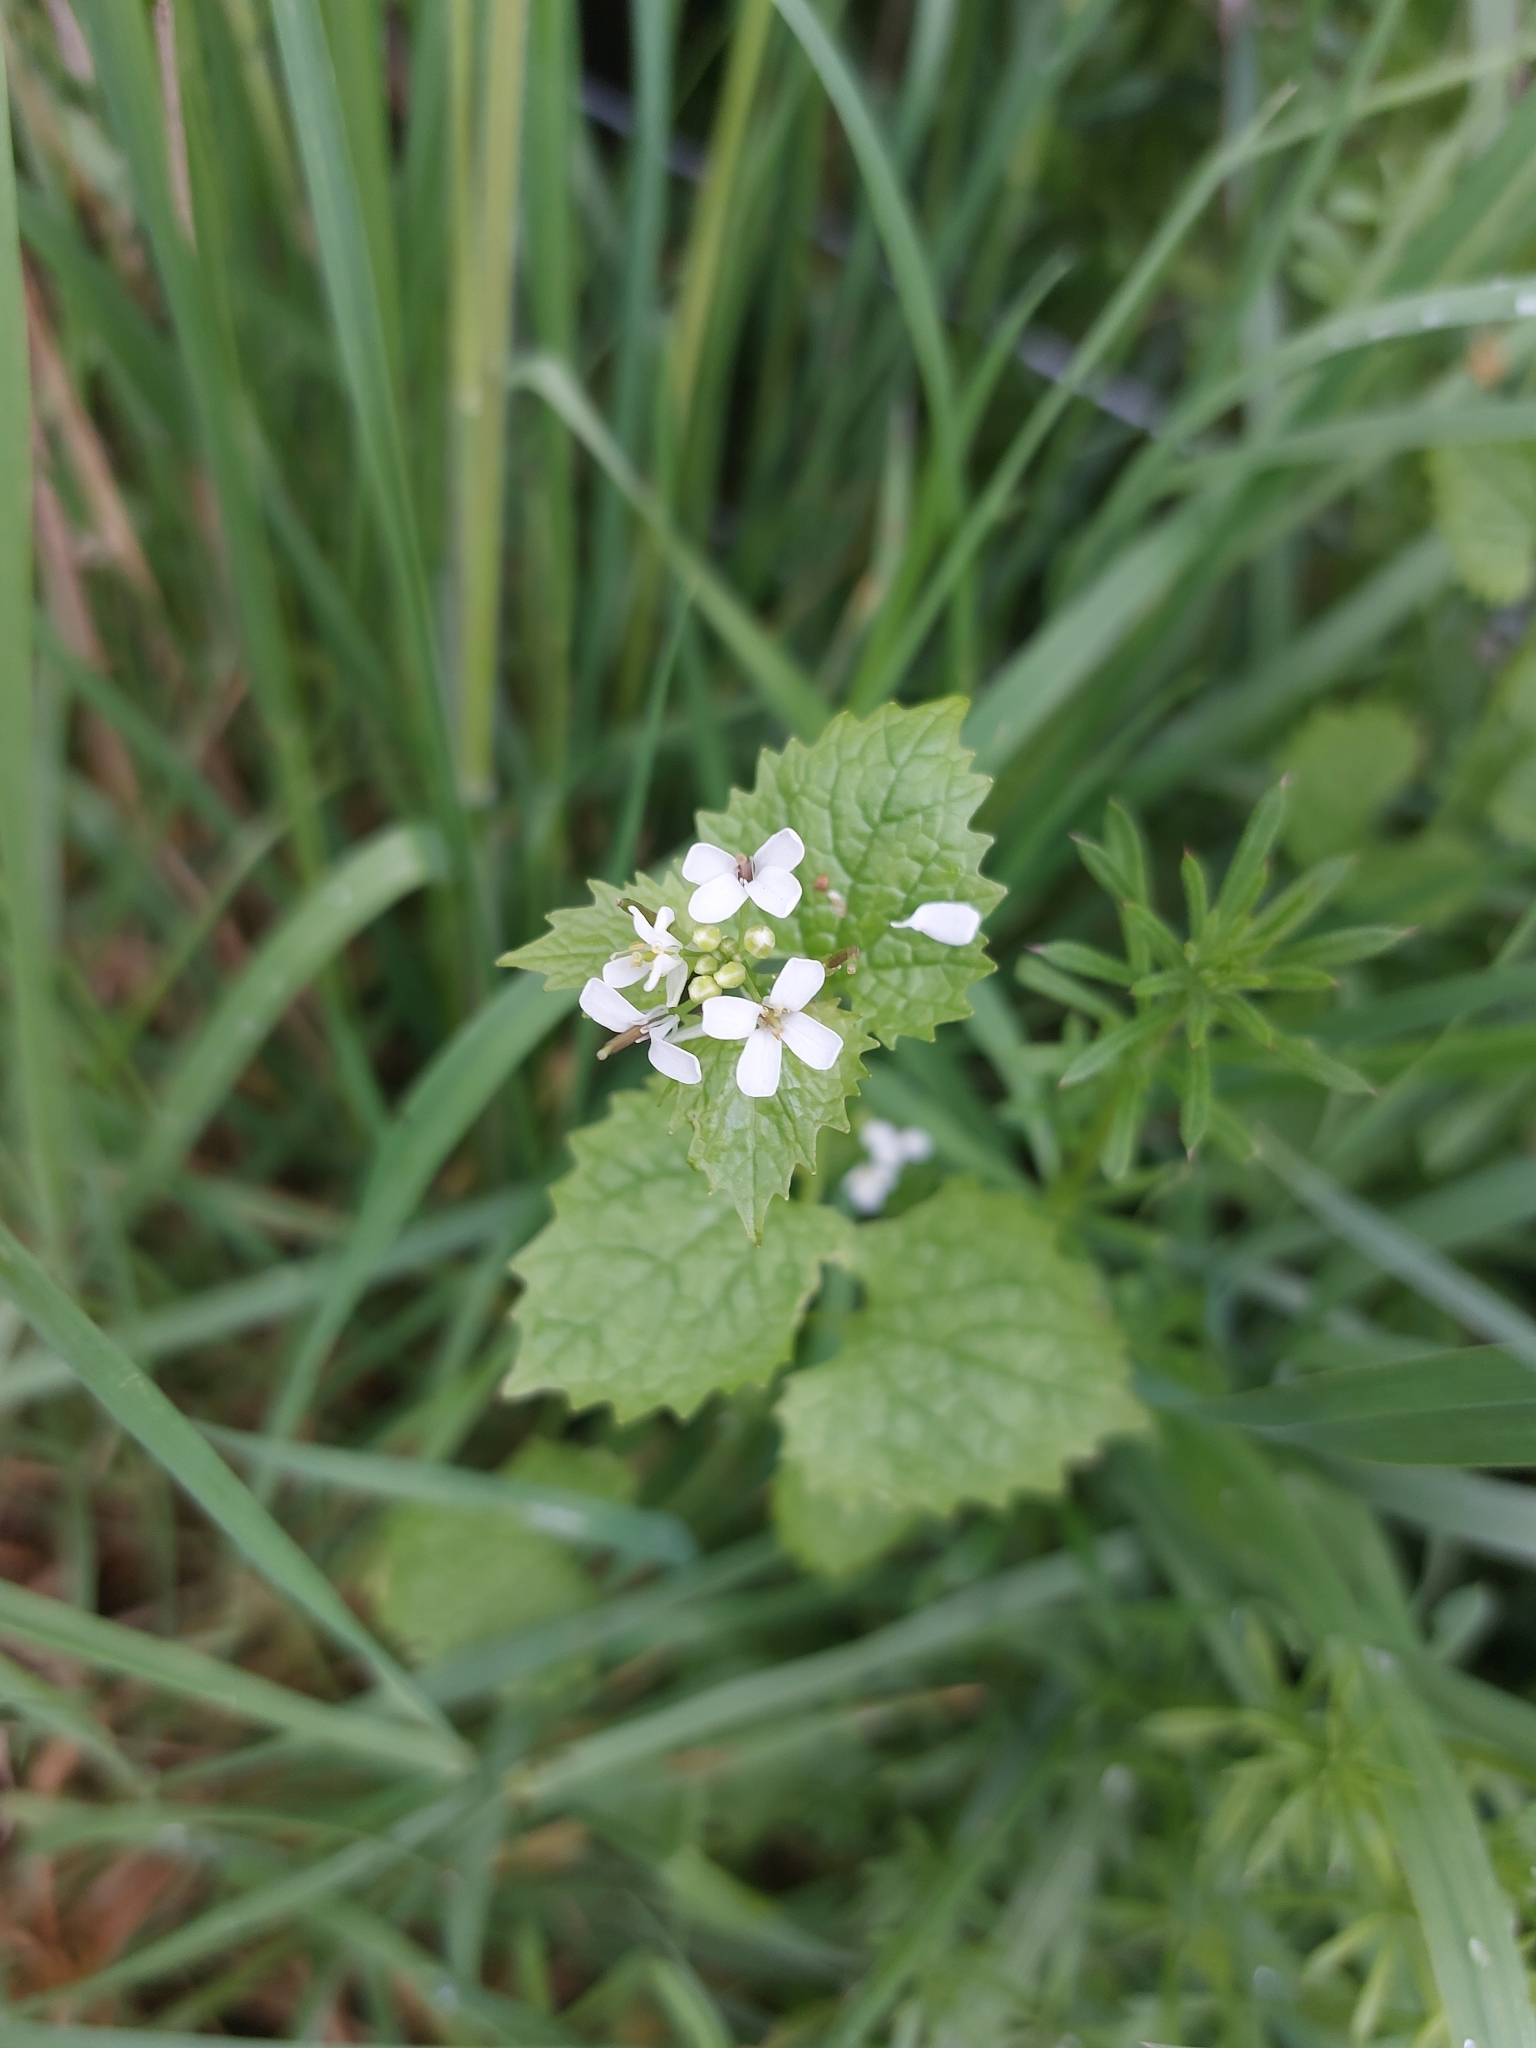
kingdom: Plantae
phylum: Tracheophyta
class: Magnoliopsida
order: Brassicales
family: Brassicaceae
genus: Alliaria
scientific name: Alliaria petiolata
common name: Garlic mustard
